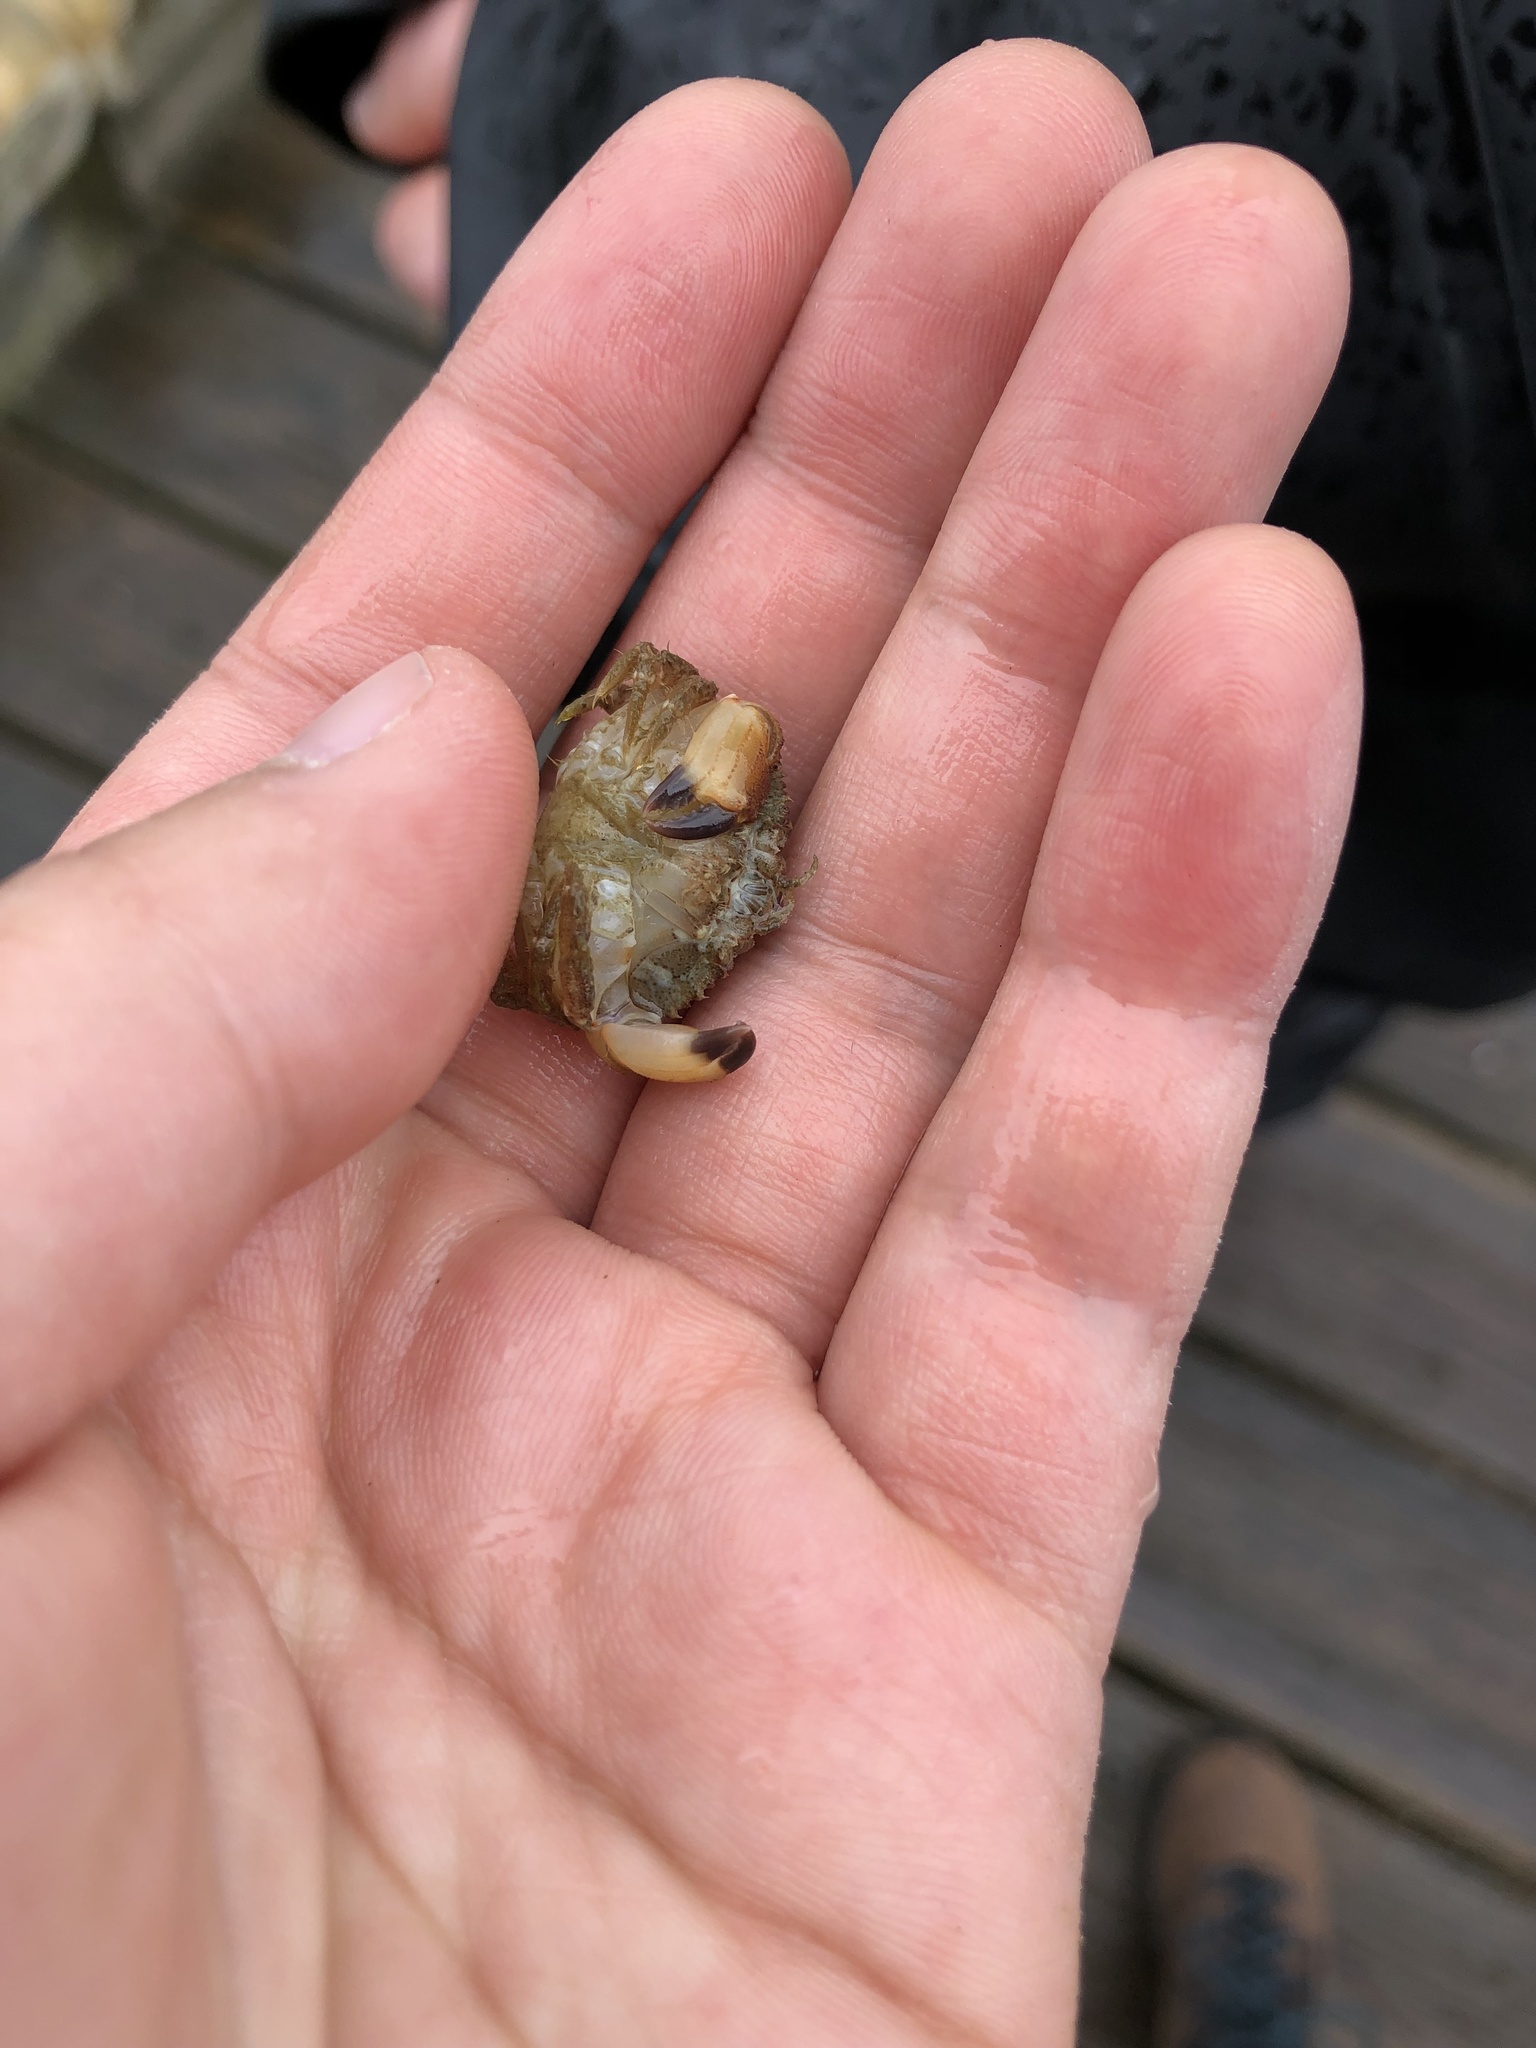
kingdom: Animalia
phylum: Arthropoda
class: Malacostraca
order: Decapoda
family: Cancridae
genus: Glebocarcinus
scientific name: Glebocarcinus oregonensis
